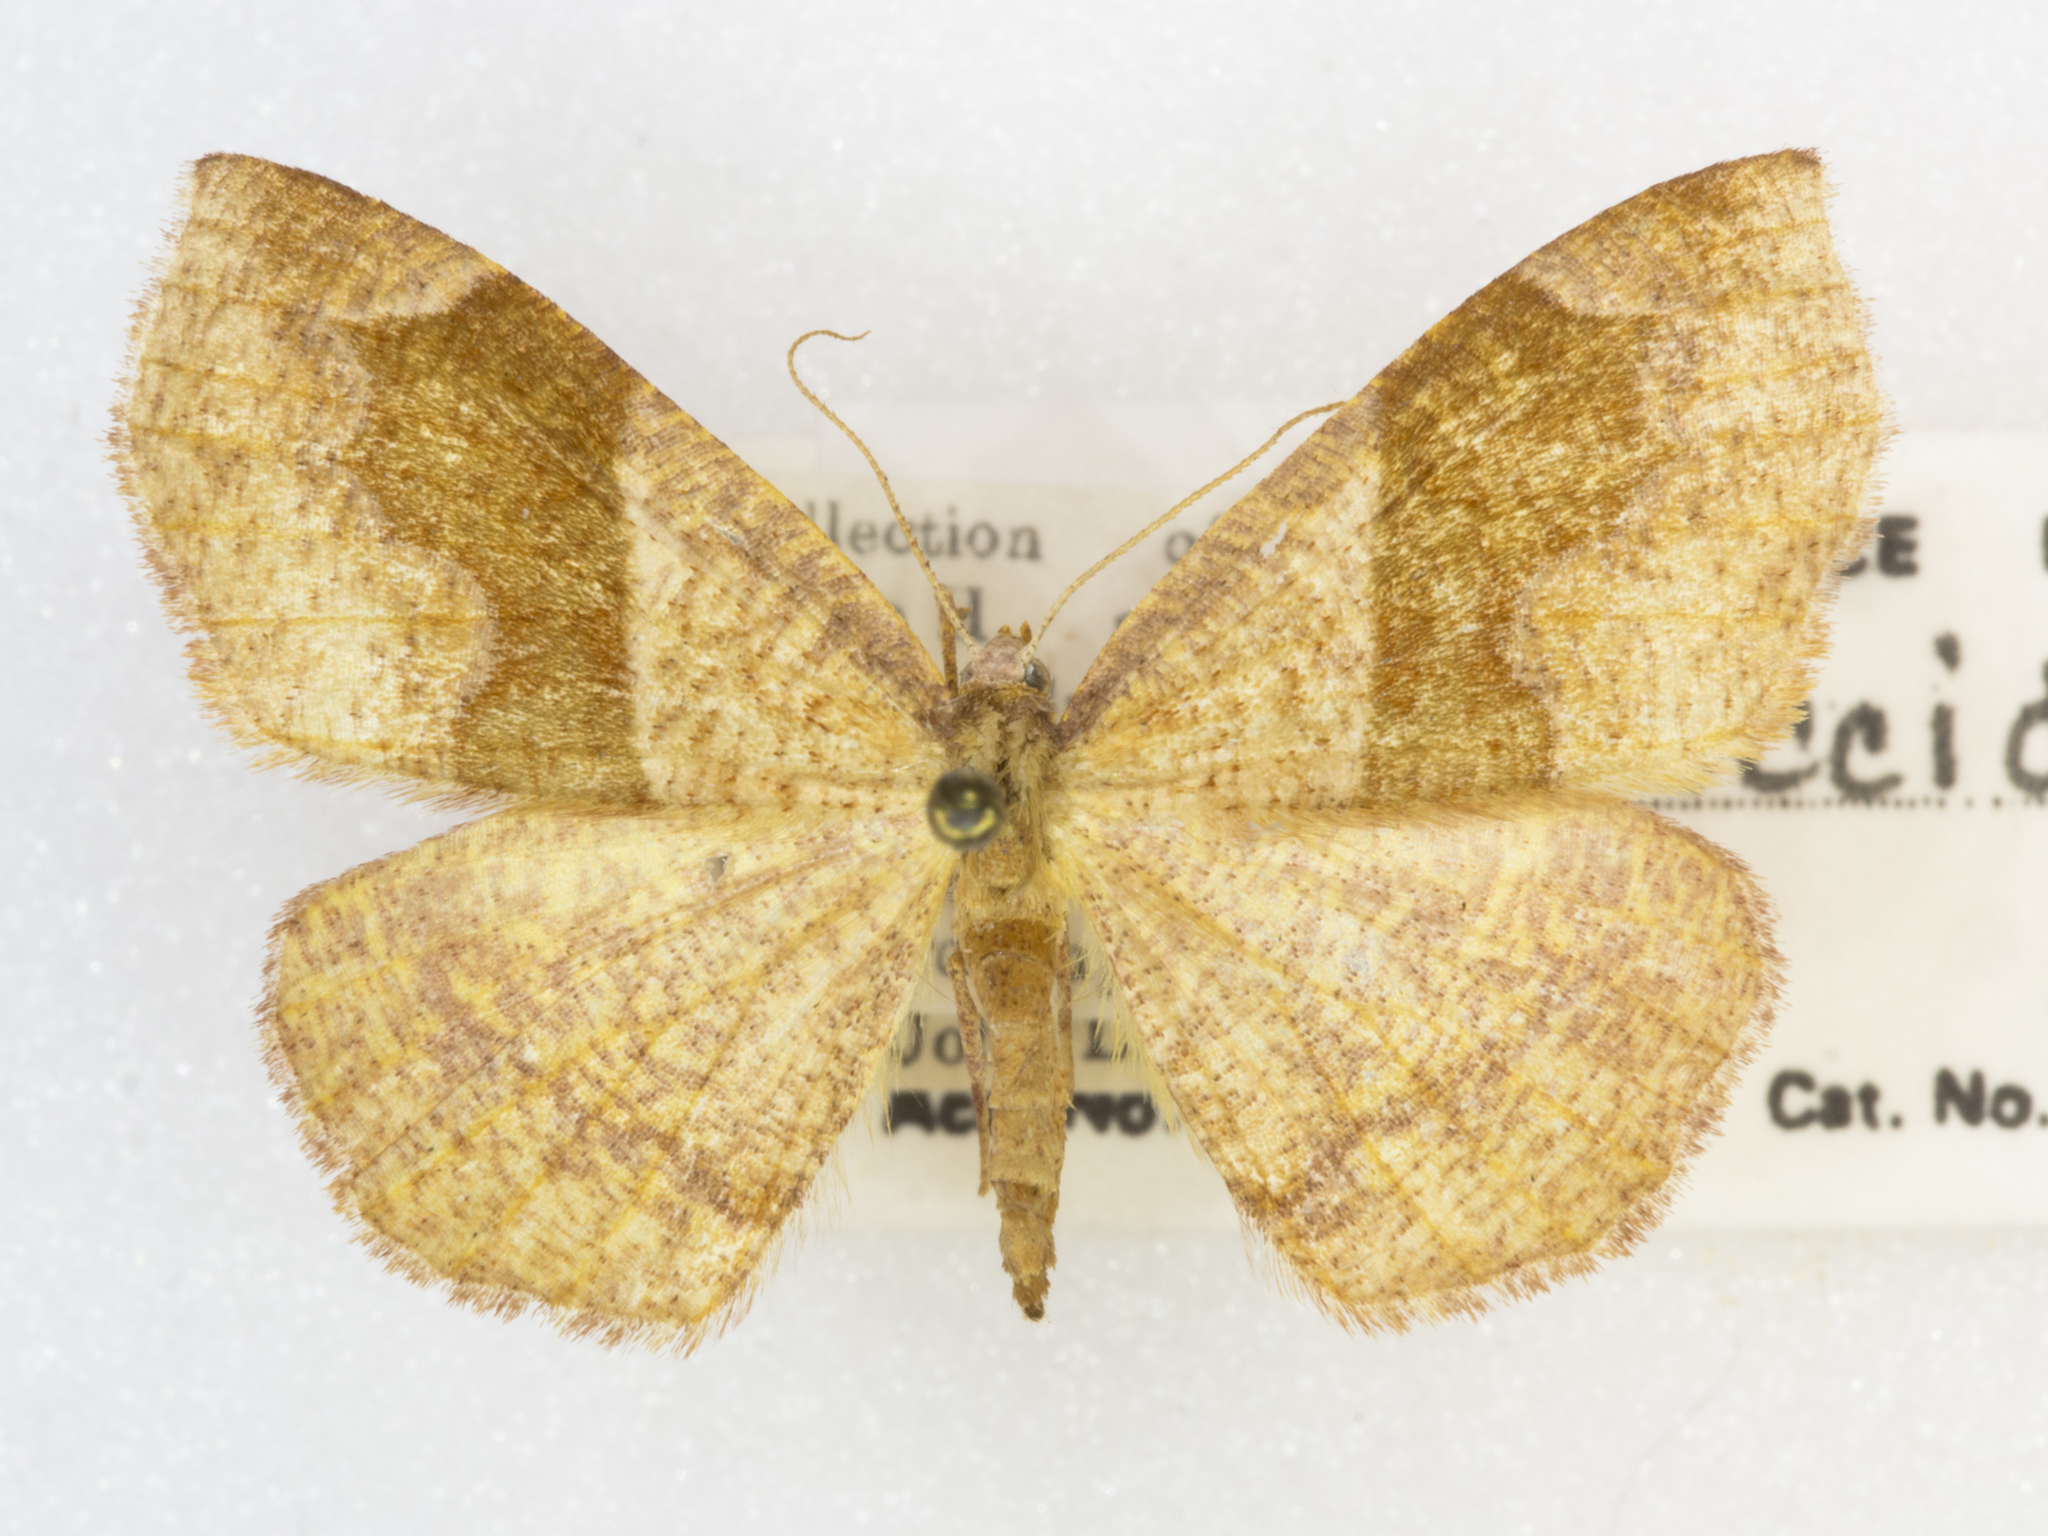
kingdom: Animalia
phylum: Arthropoda
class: Insecta
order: Lepidoptera
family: Geometridae
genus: Plagodis
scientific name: Plagodis pulveraria
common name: Barred umber
